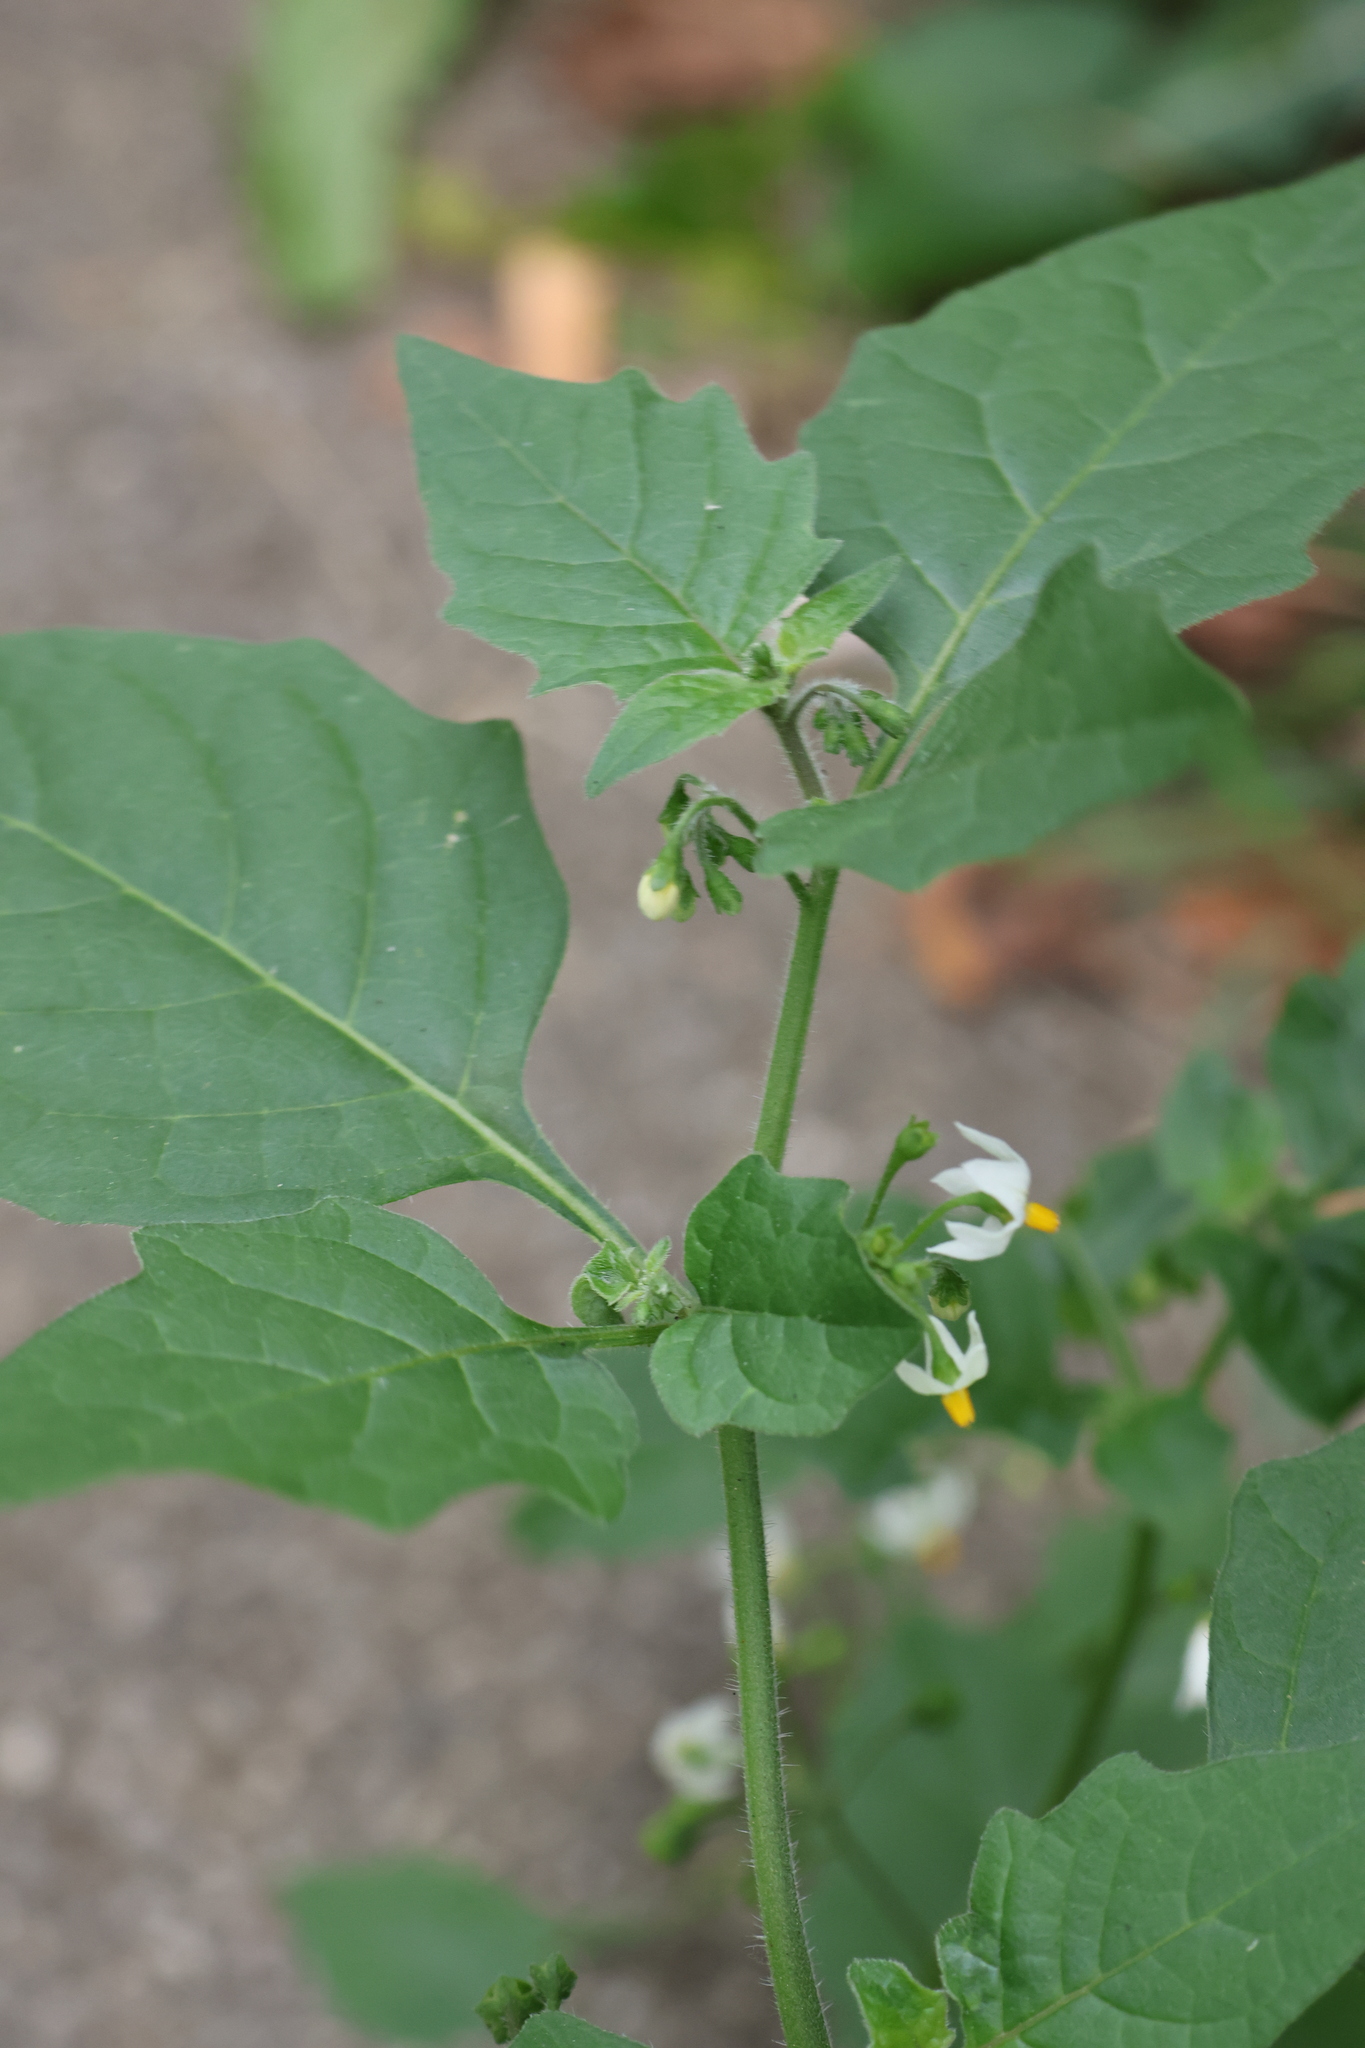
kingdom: Plantae
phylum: Tracheophyta
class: Magnoliopsida
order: Solanales
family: Solanaceae
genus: Solanum
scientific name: Solanum nigrum
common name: Black nightshade
